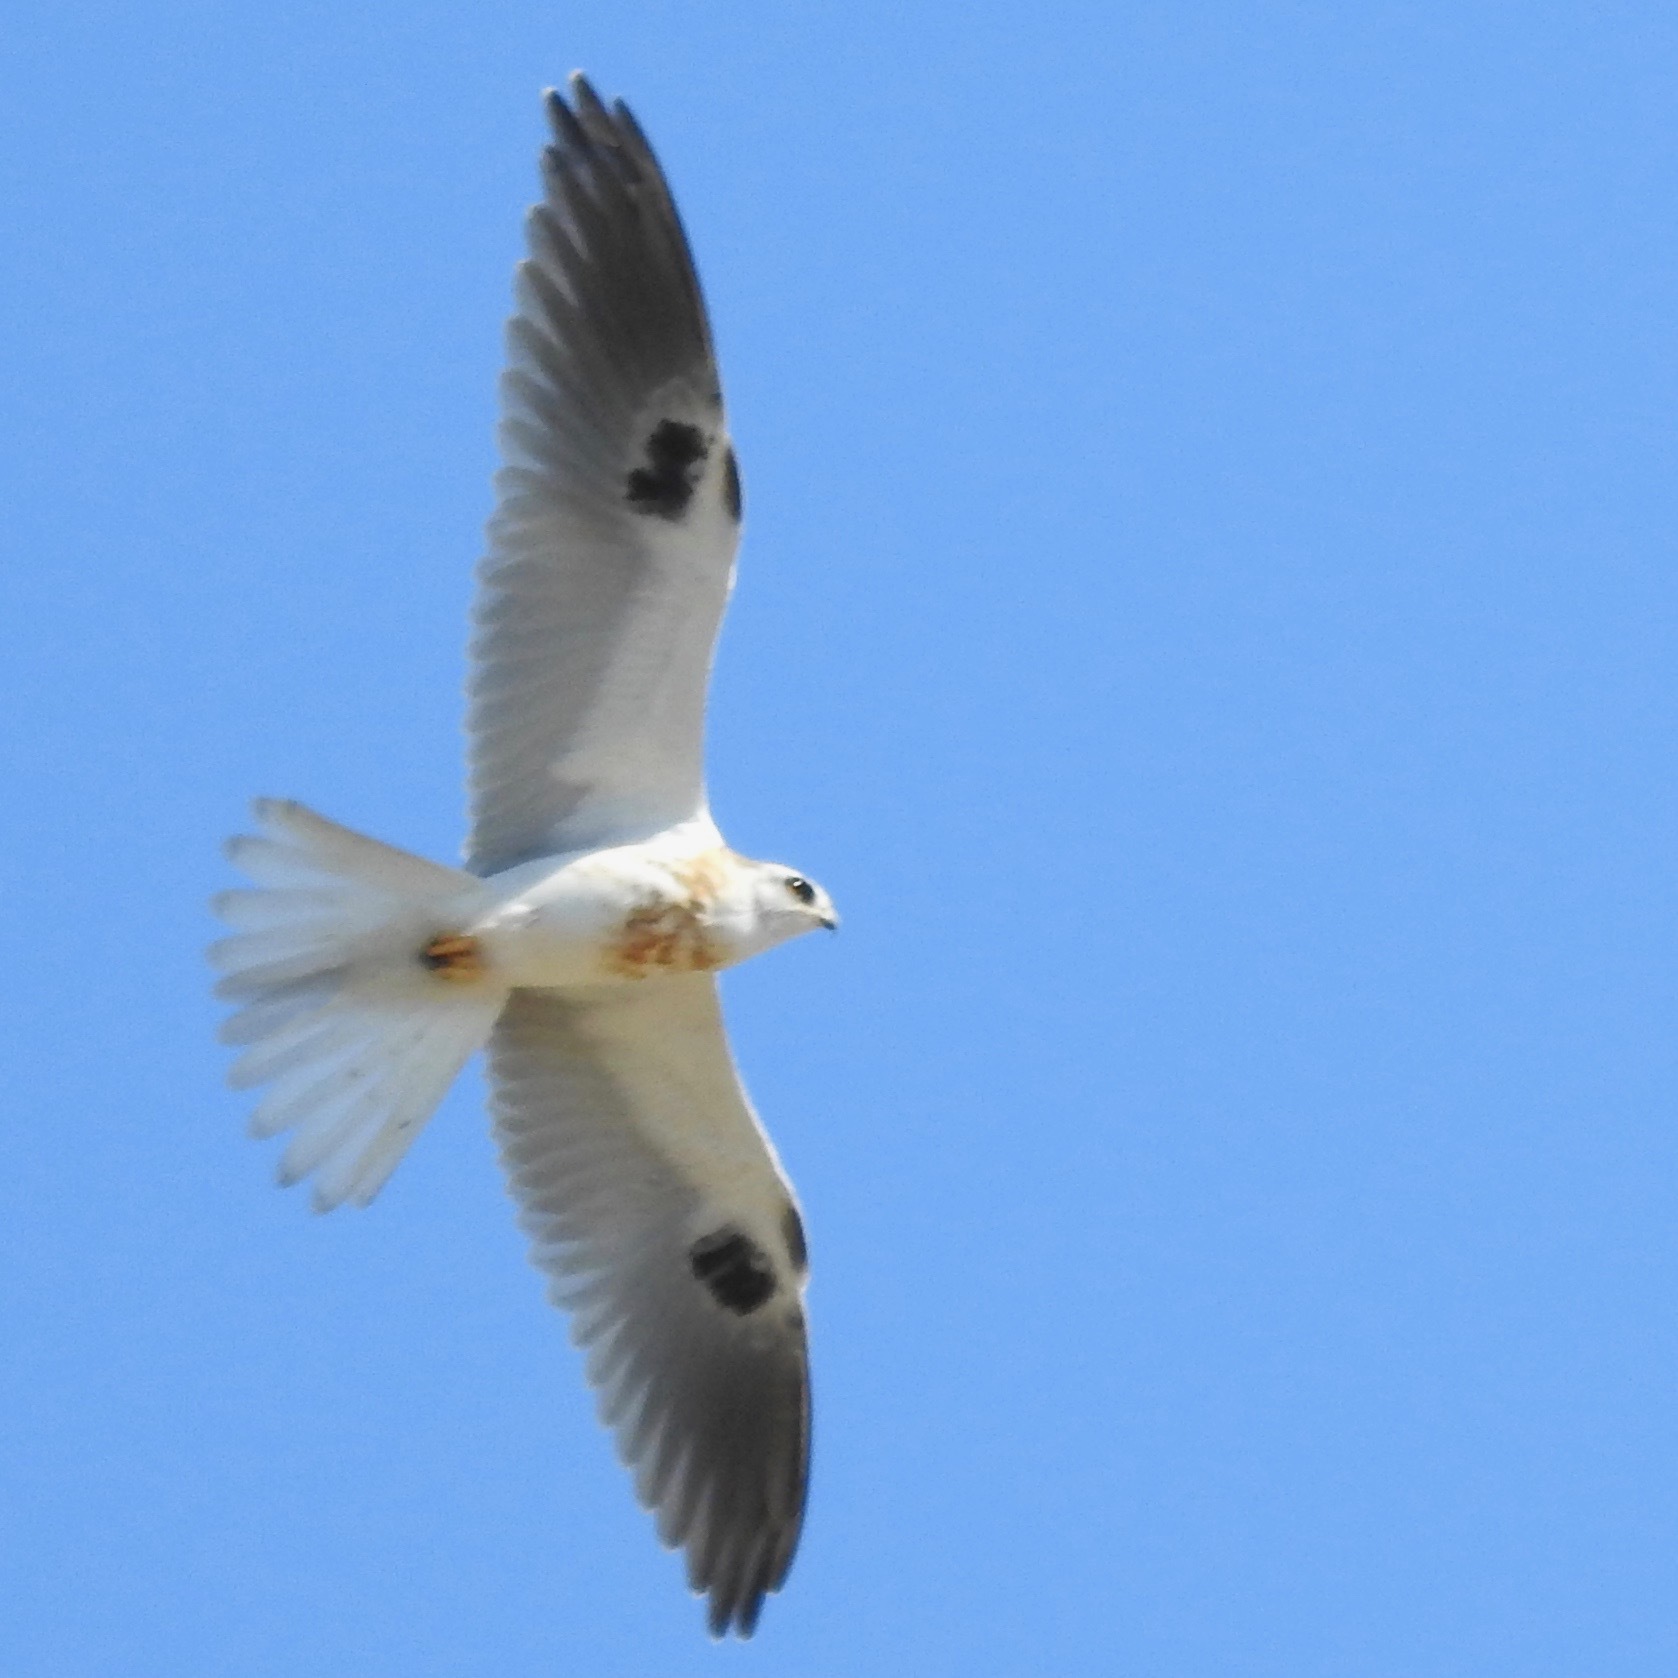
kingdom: Animalia
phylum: Chordata
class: Aves
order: Accipitriformes
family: Accipitridae
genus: Elanus
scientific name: Elanus leucurus
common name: White-tailed kite
